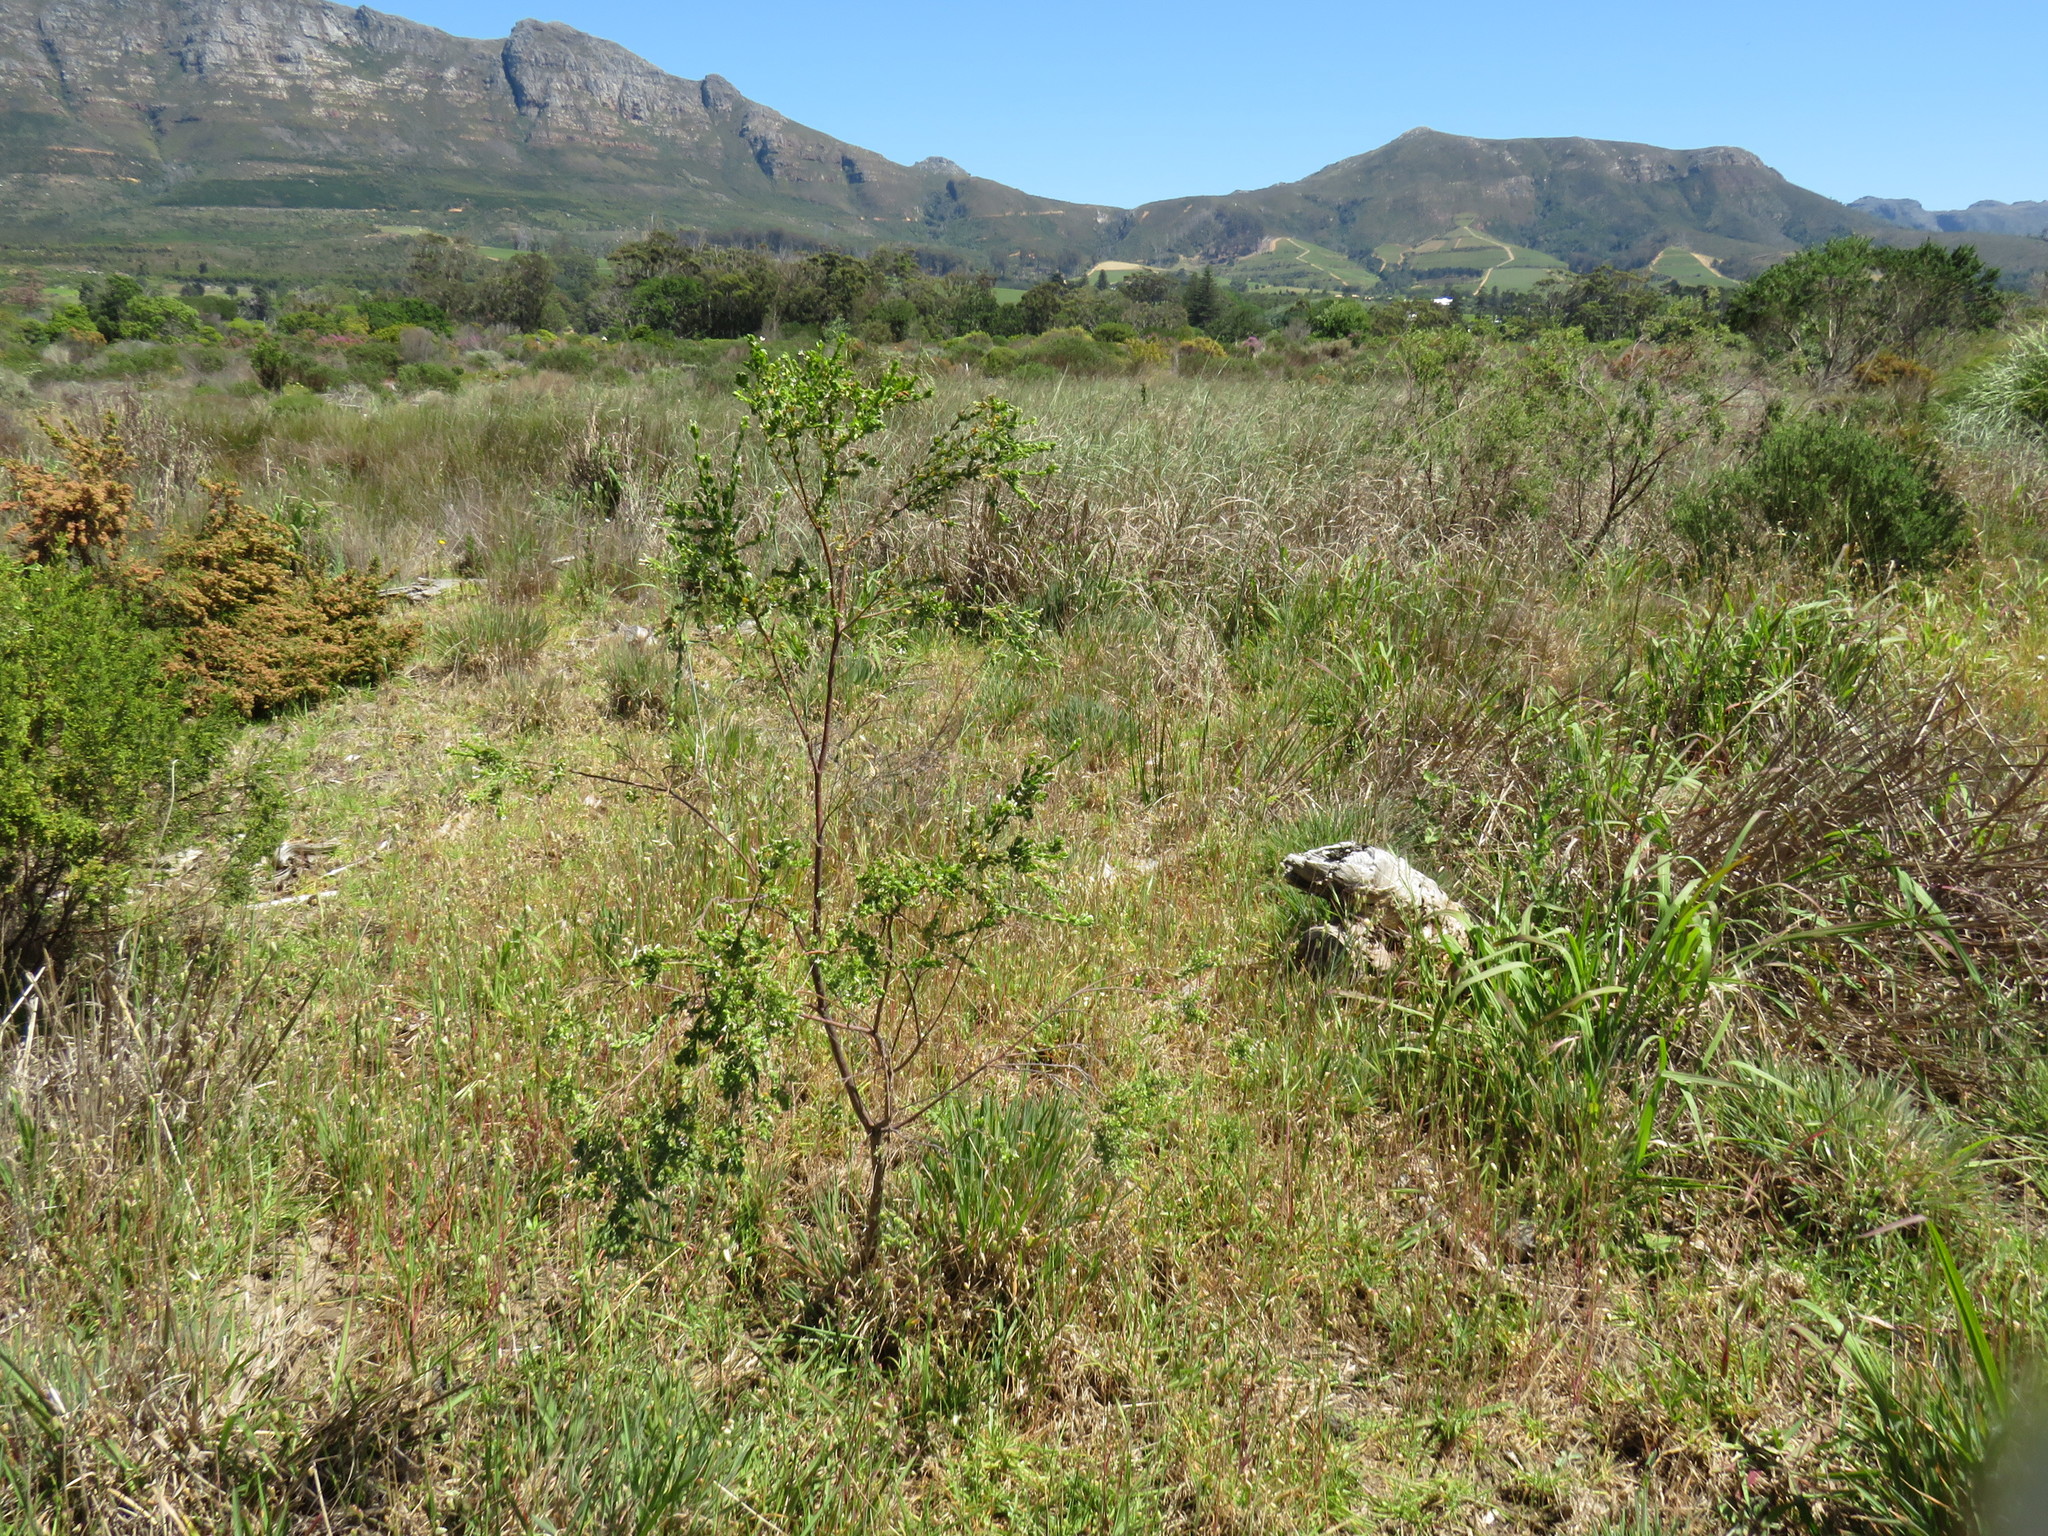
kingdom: Plantae
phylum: Tracheophyta
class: Magnoliopsida
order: Malvales
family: Thymelaeaceae
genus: Gnidia
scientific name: Gnidia sericea
